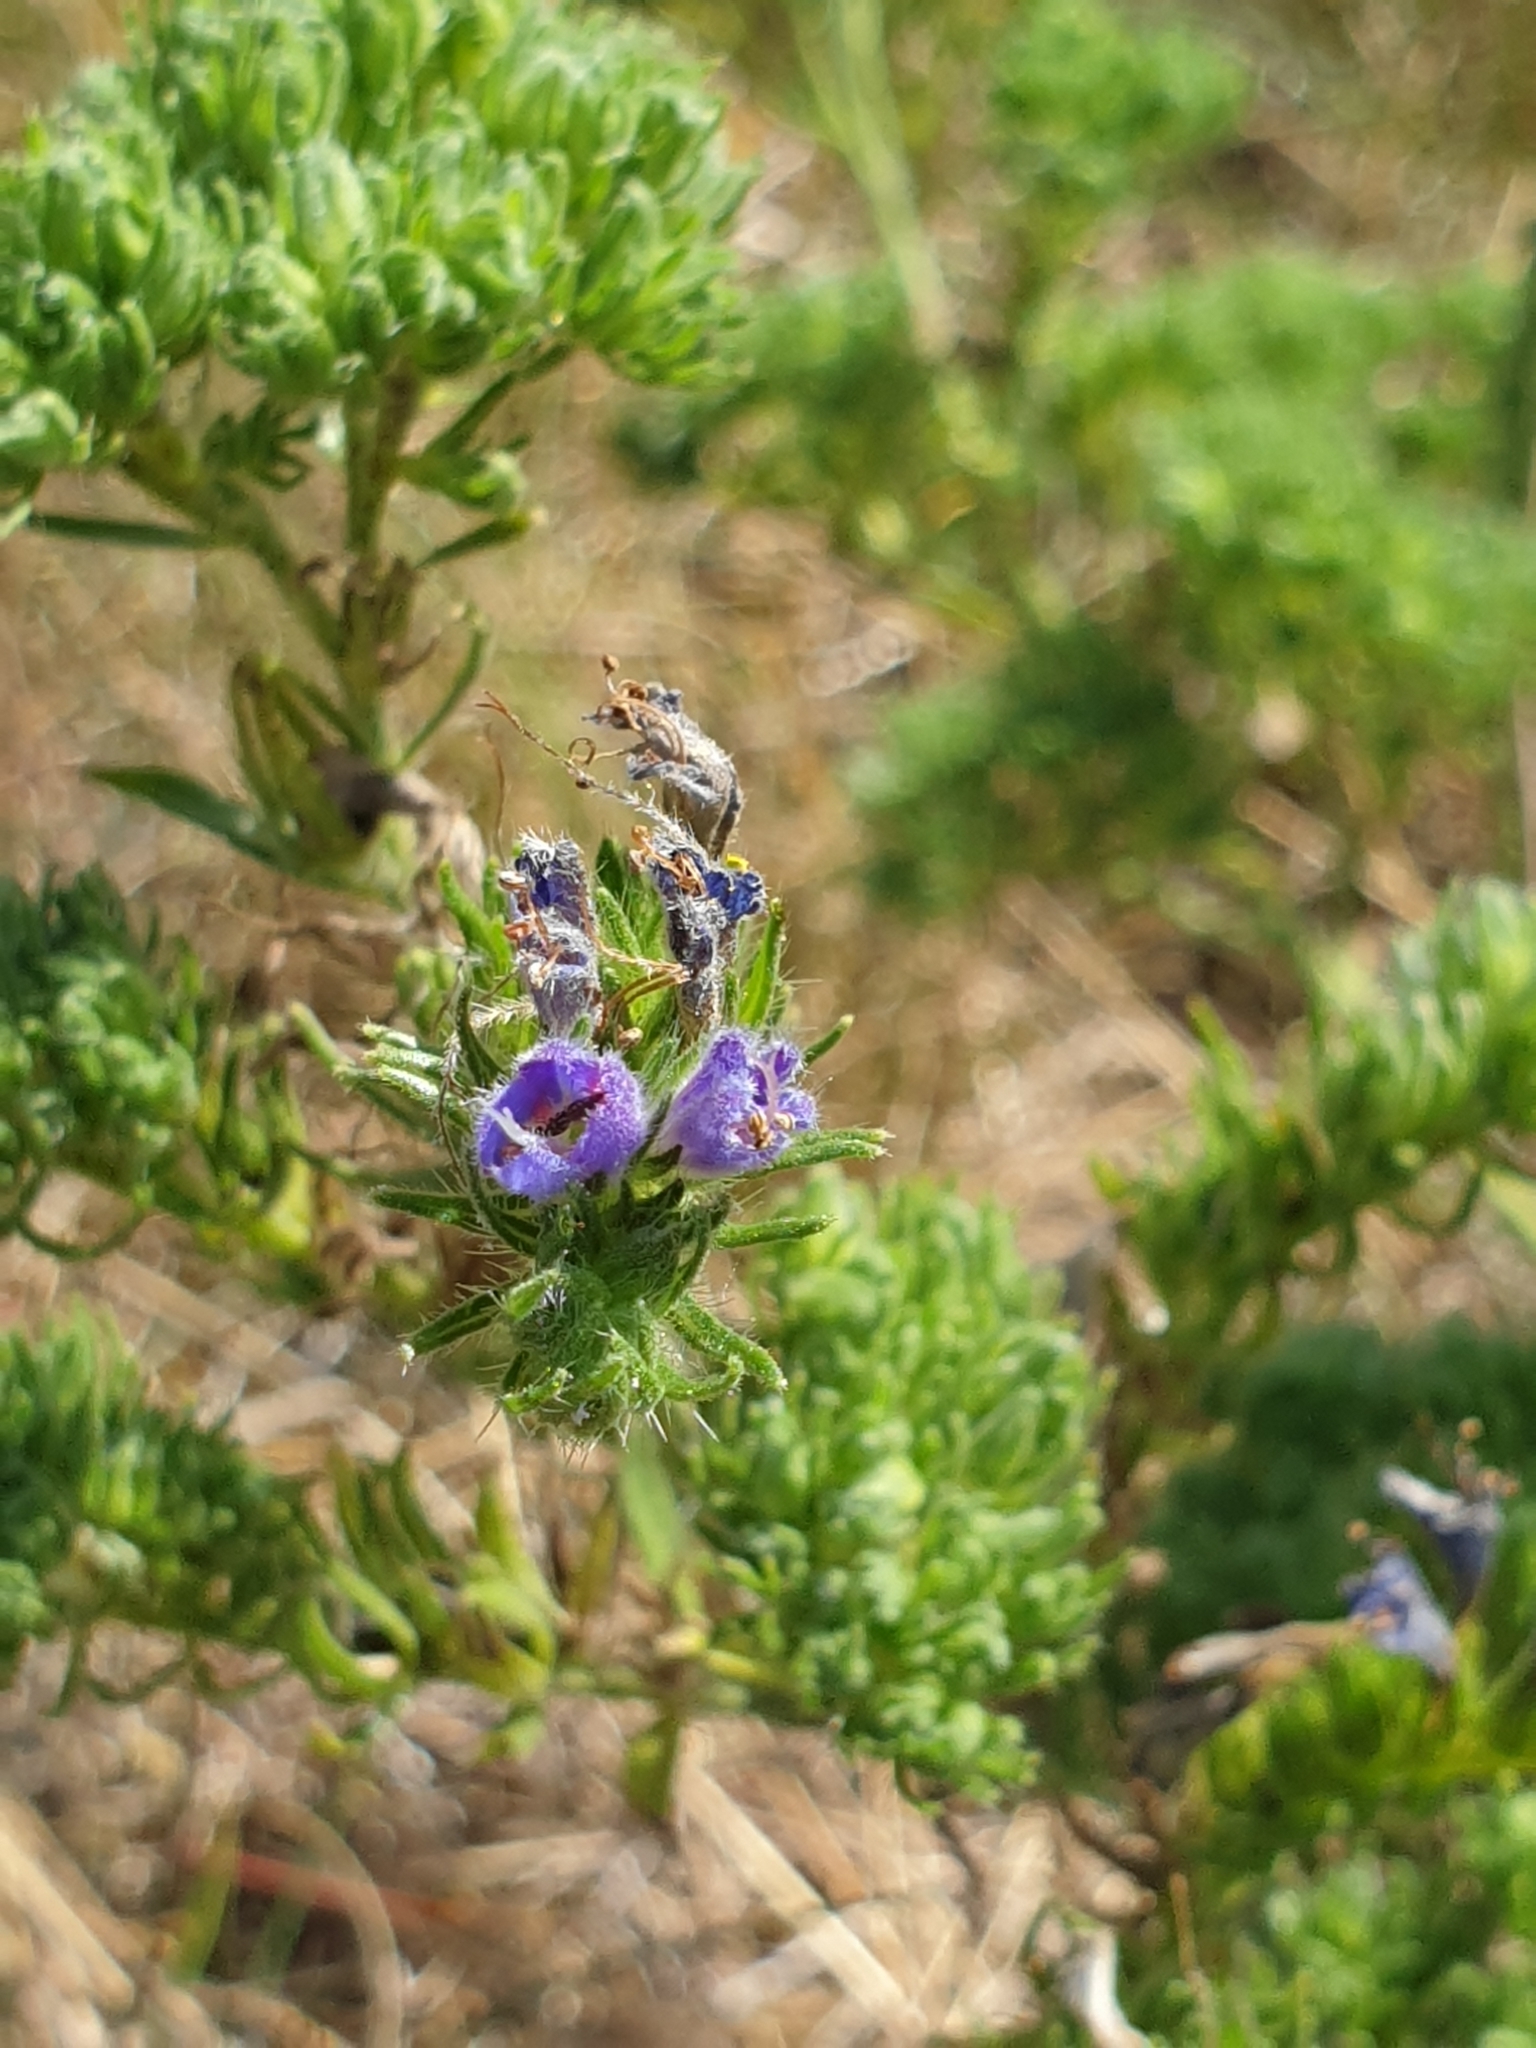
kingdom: Animalia
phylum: Arthropoda
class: Arachnida
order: Trombidiformes
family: Eriophyidae
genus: Aceria
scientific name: Aceria echii
